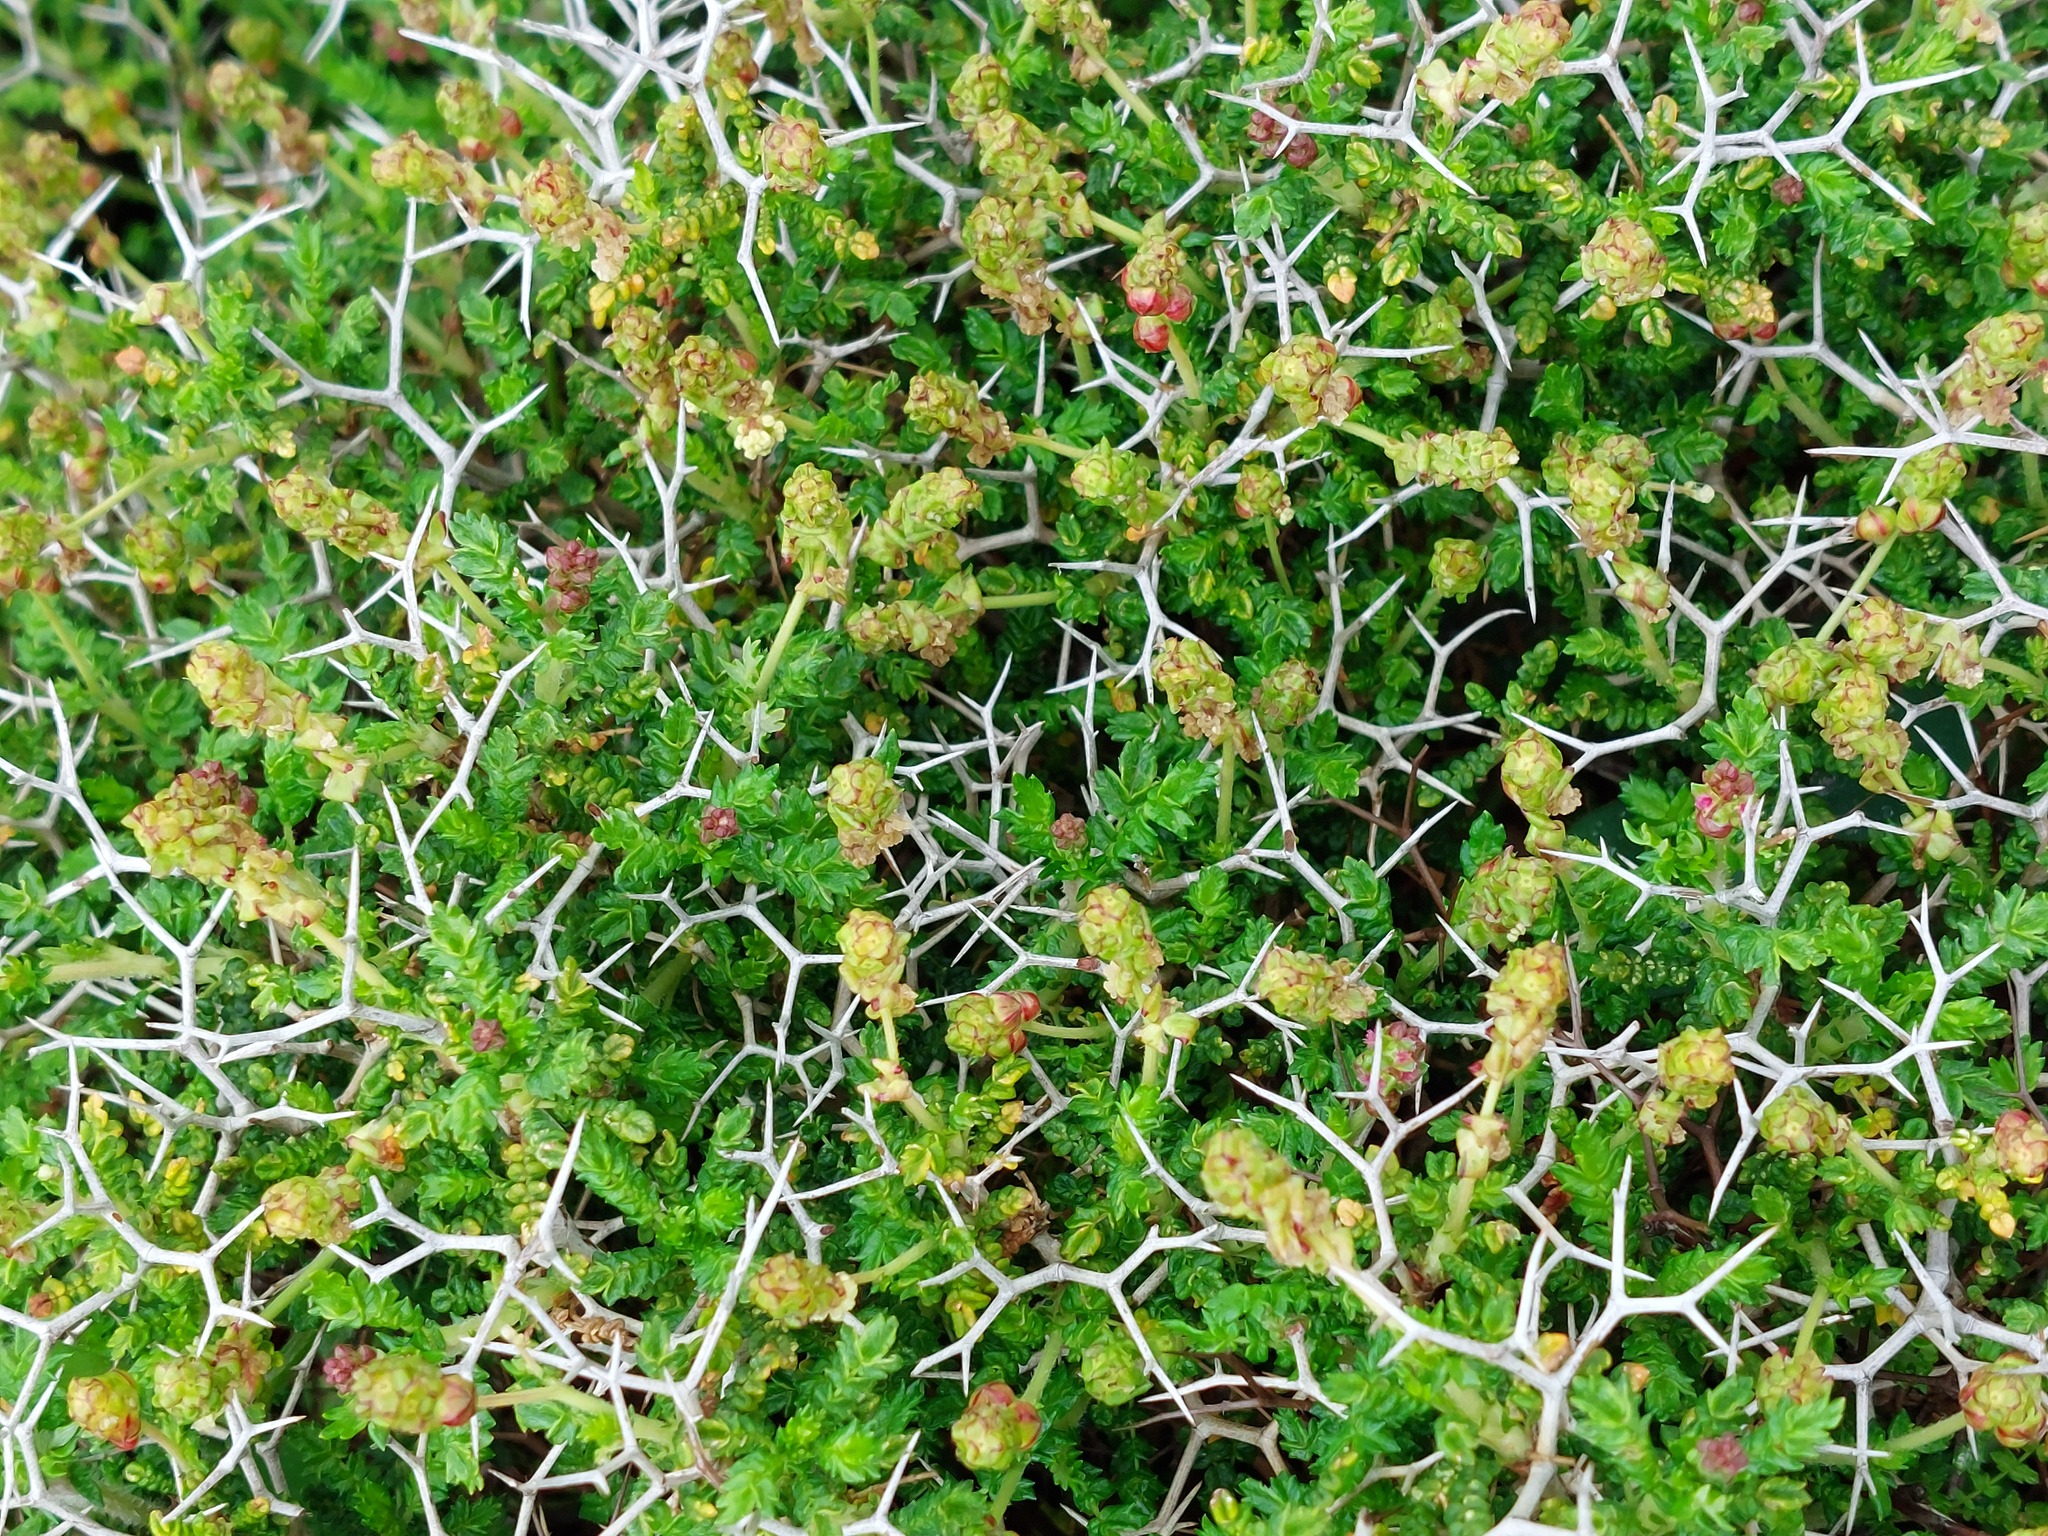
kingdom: Plantae
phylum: Tracheophyta
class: Magnoliopsida
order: Rosales
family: Rosaceae
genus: Sarcopoterium
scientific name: Sarcopoterium spinosum
